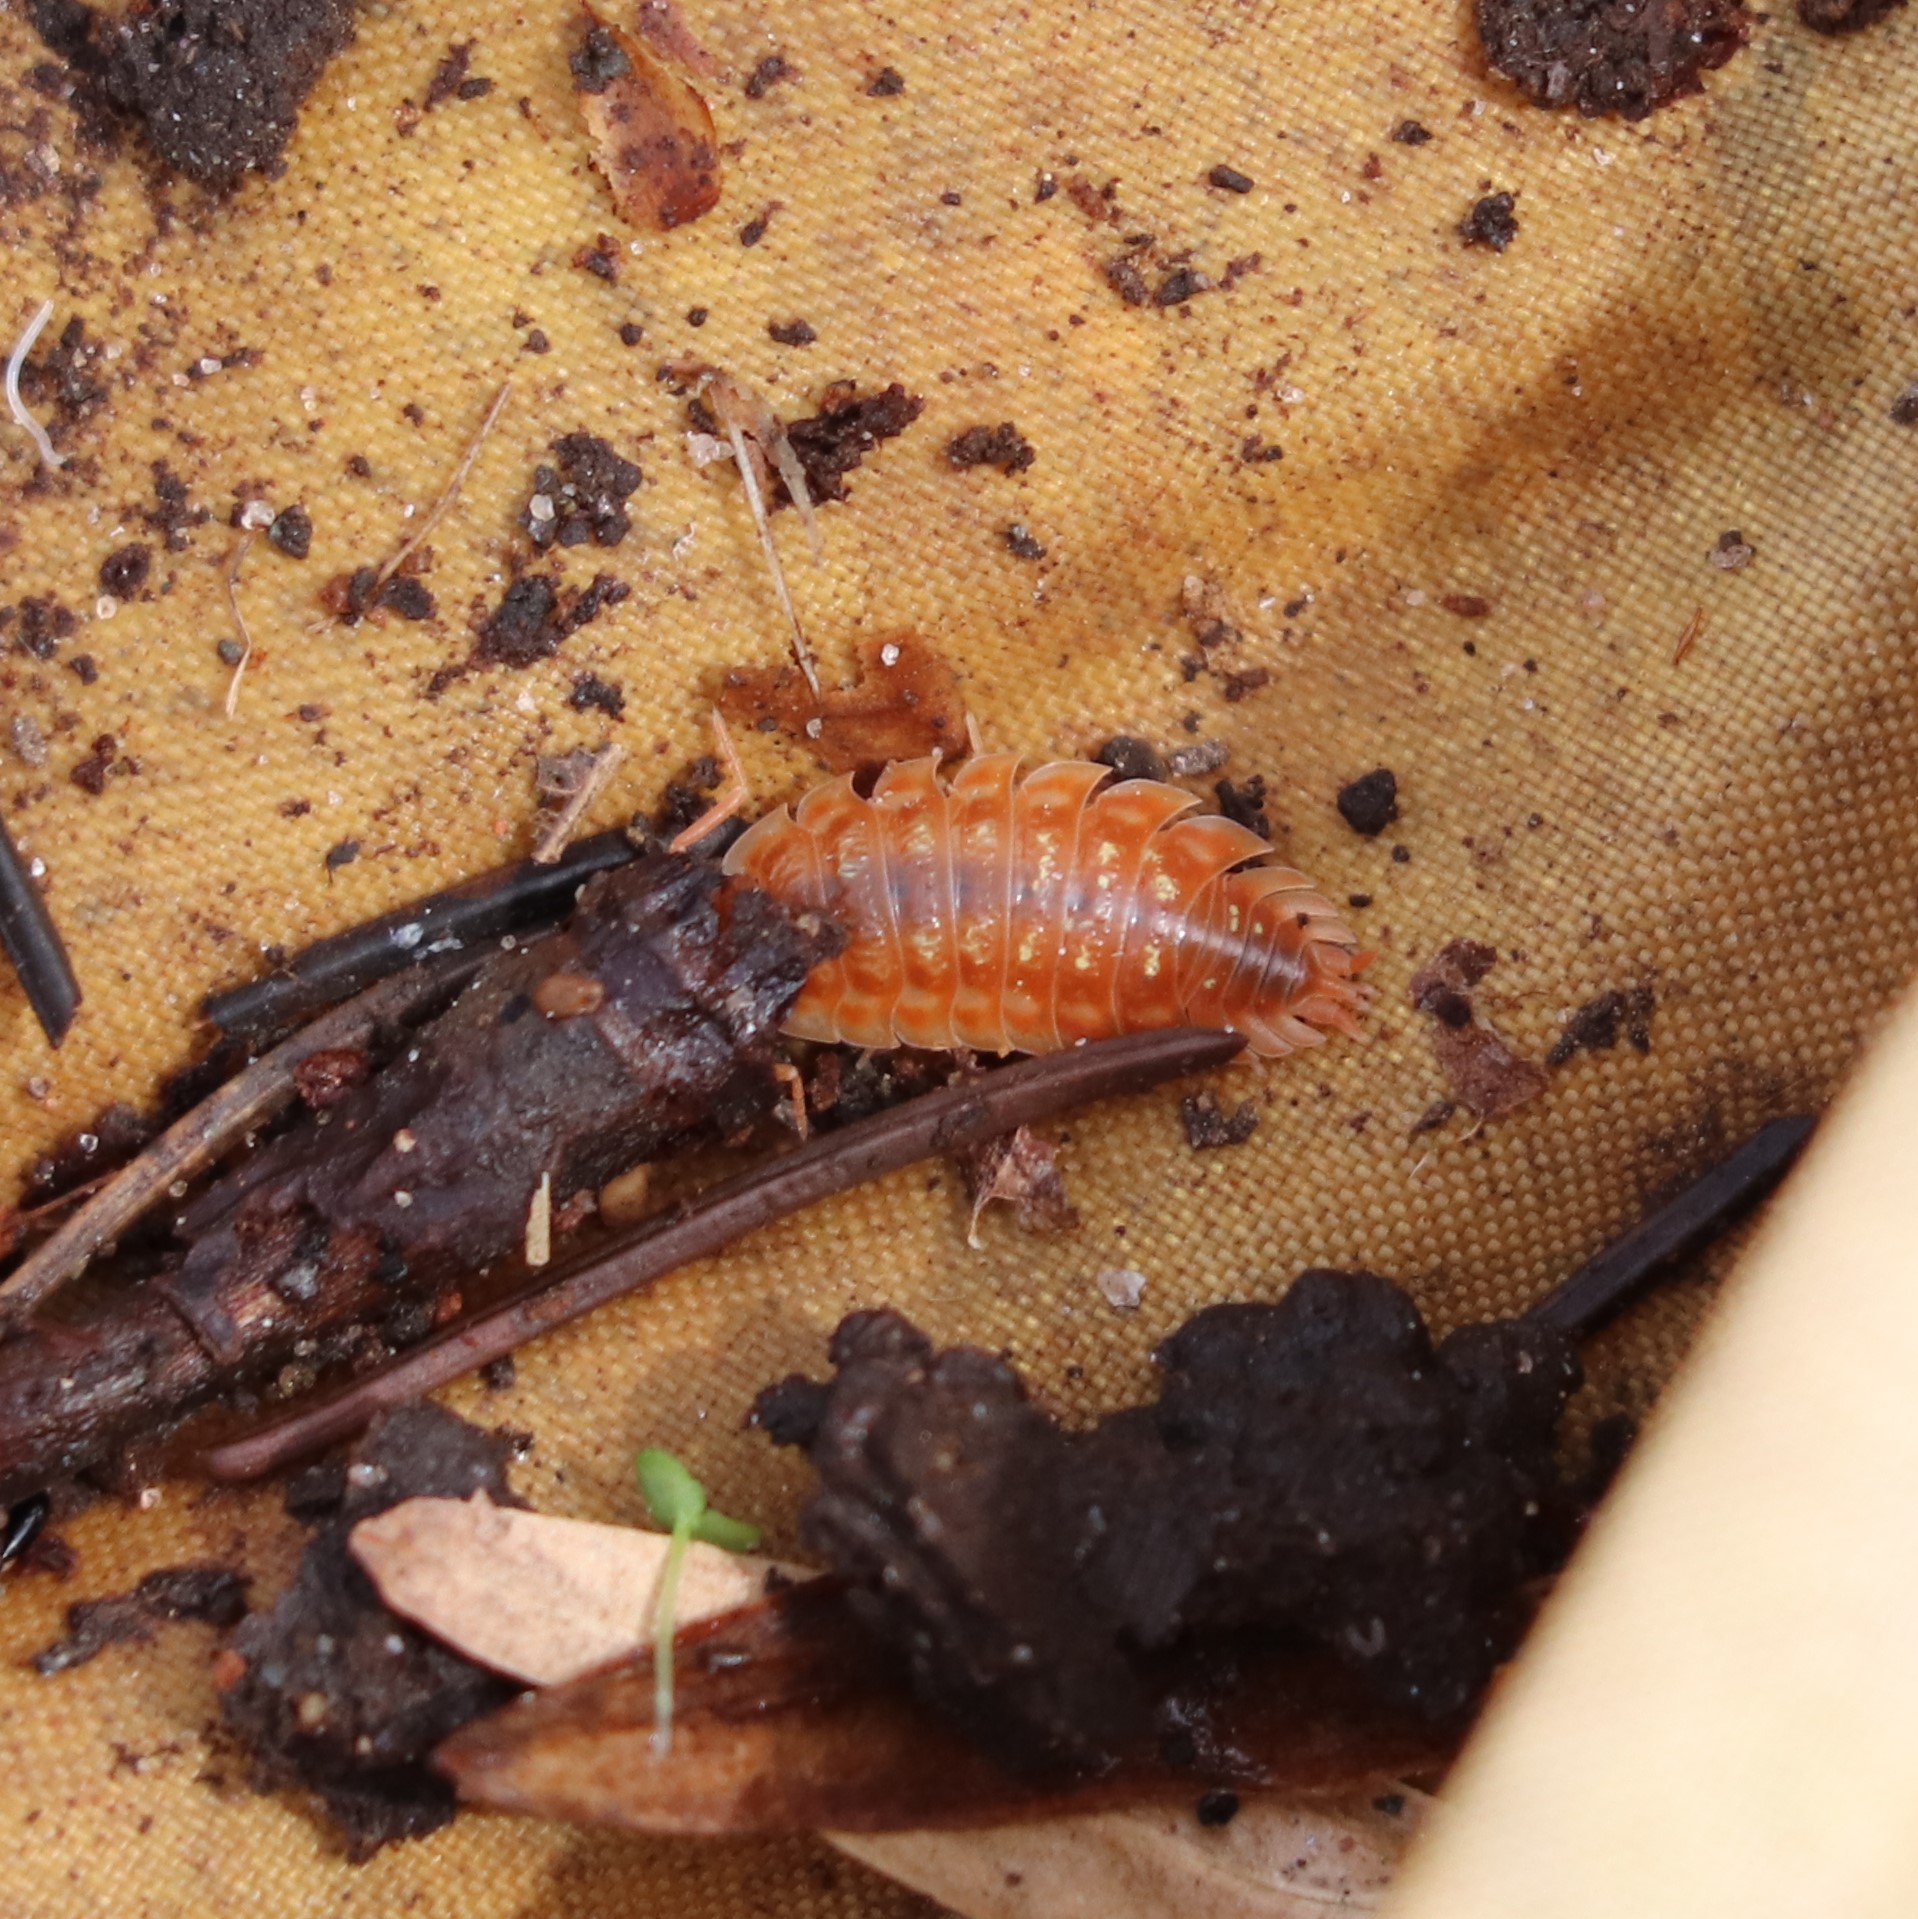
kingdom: Animalia
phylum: Arthropoda
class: Malacostraca
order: Isopoda
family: Oniscidae
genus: Oniscus
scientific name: Oniscus asellus
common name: Common shiny woodlouse
